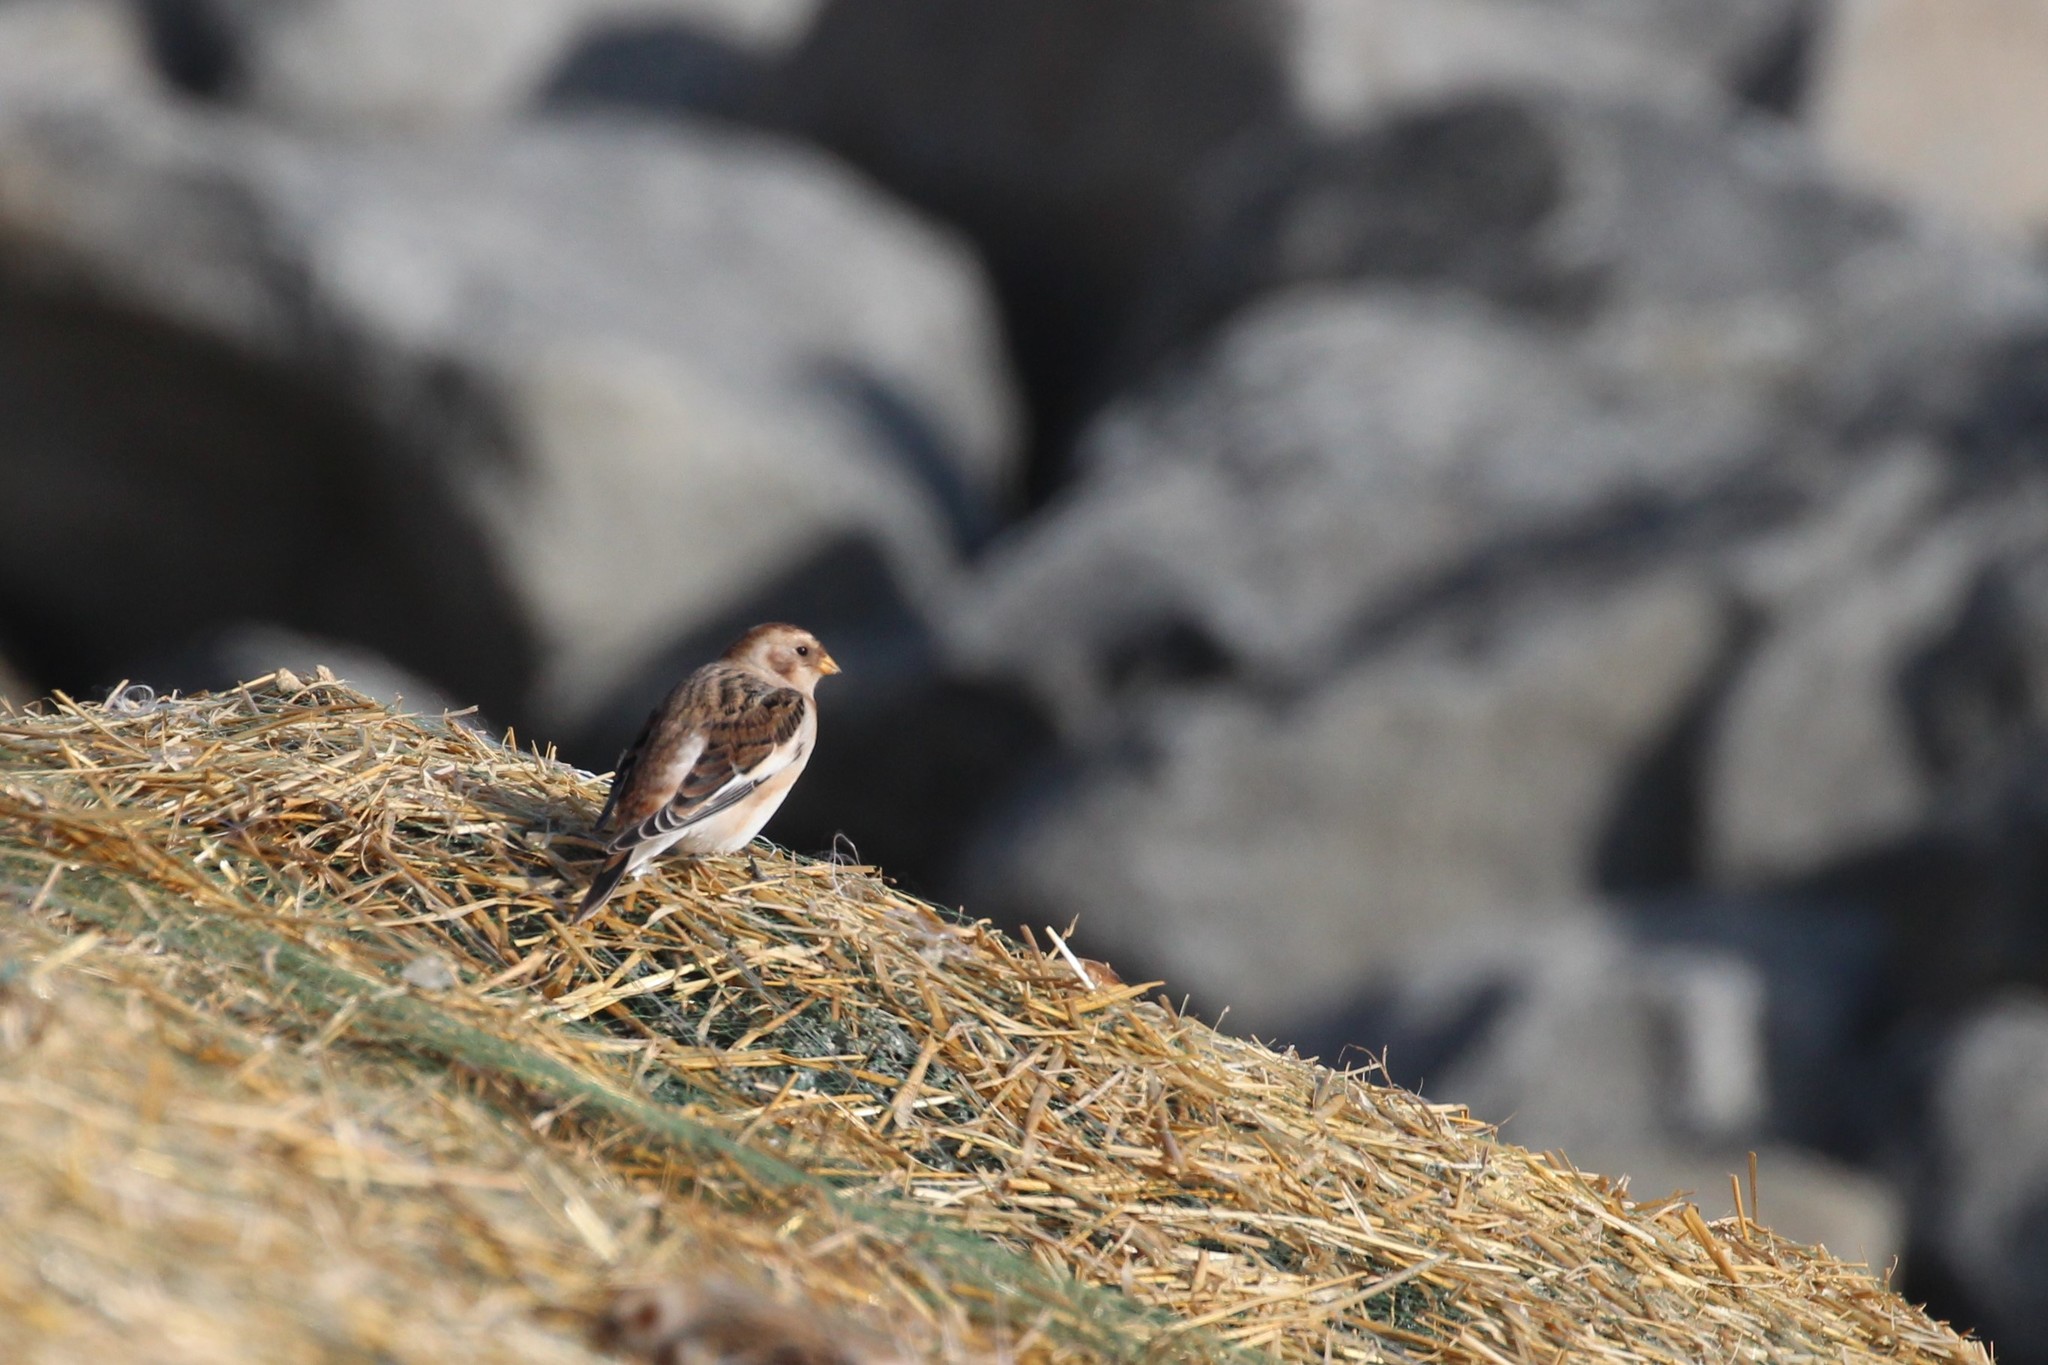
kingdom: Animalia
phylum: Chordata
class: Aves
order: Passeriformes
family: Calcariidae
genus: Plectrophenax
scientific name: Plectrophenax nivalis
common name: Snow bunting
